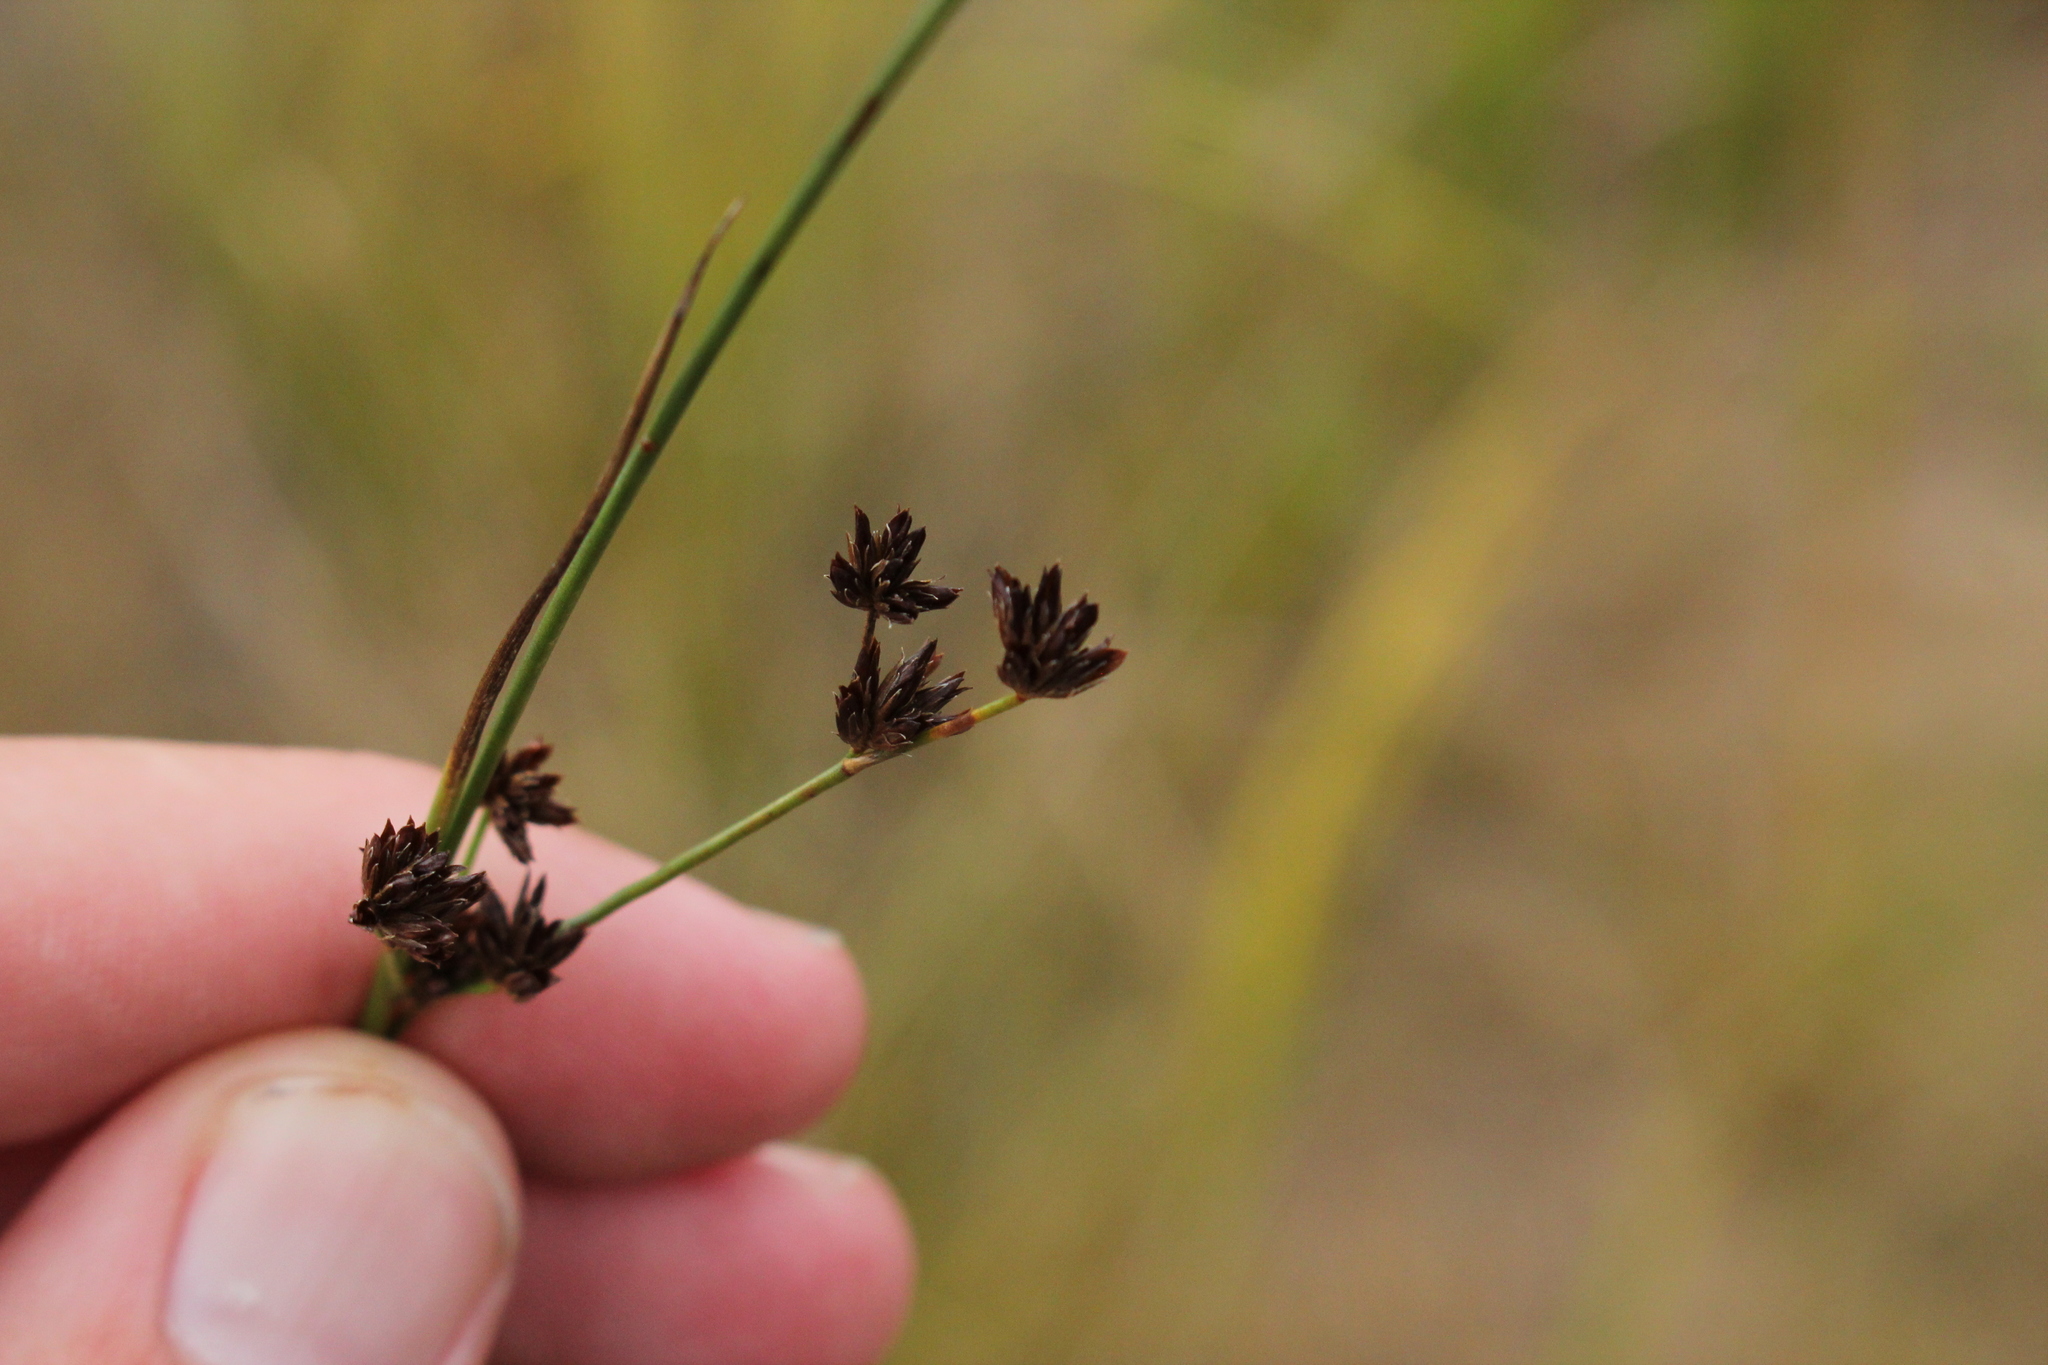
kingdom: Plantae
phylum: Tracheophyta
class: Liliopsida
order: Poales
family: Juncaceae
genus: Juncus
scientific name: Juncus articulatus
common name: Jointed rush
